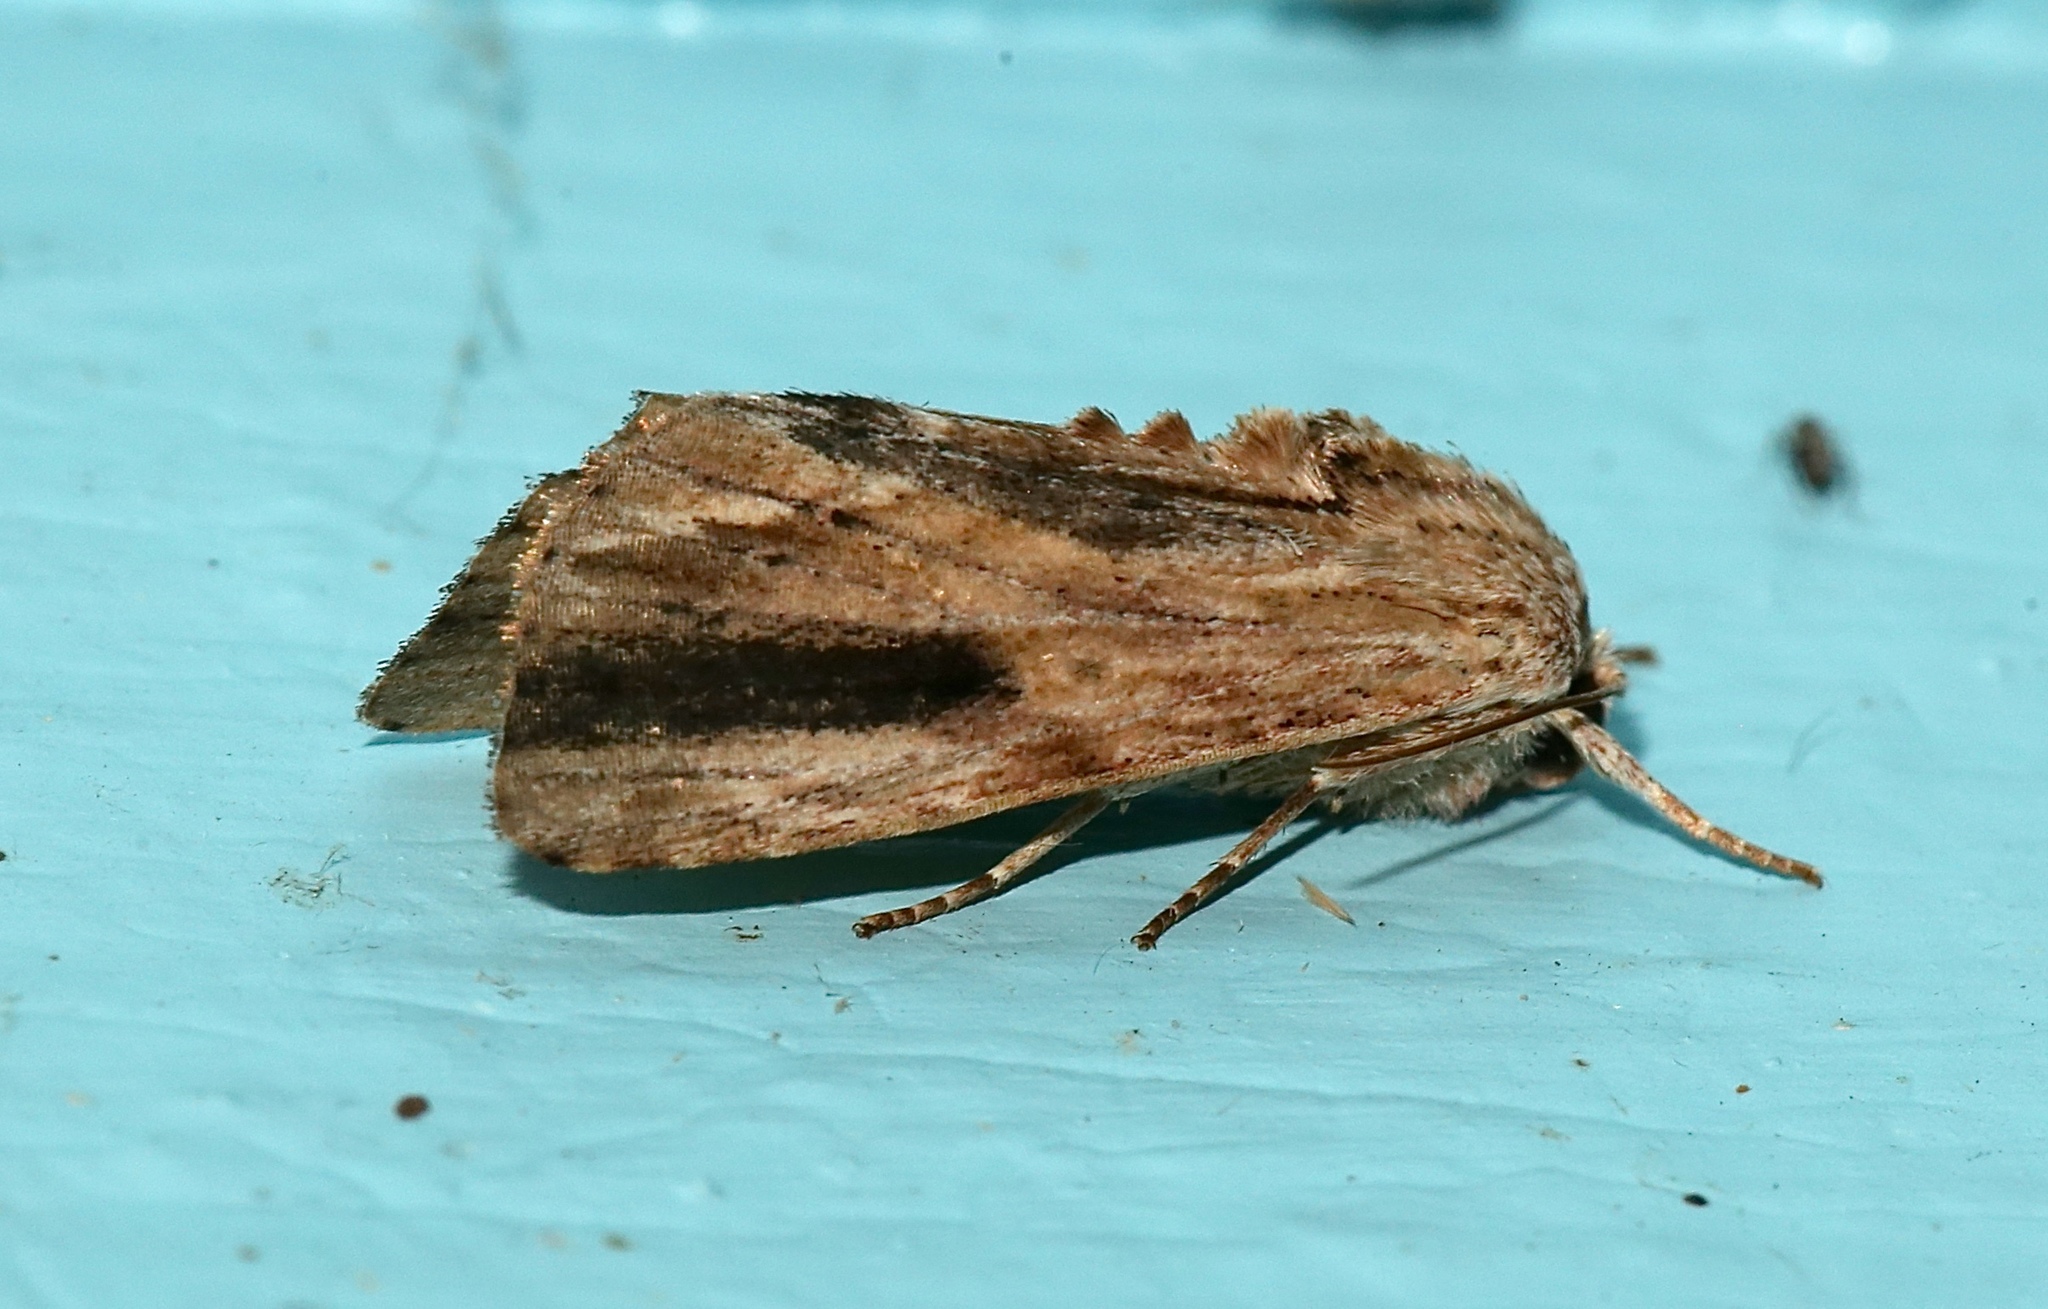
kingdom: Animalia
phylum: Arthropoda
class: Insecta
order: Lepidoptera
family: Noctuidae
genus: Spodoptera
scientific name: Spodoptera eridania
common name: Southern army worm
